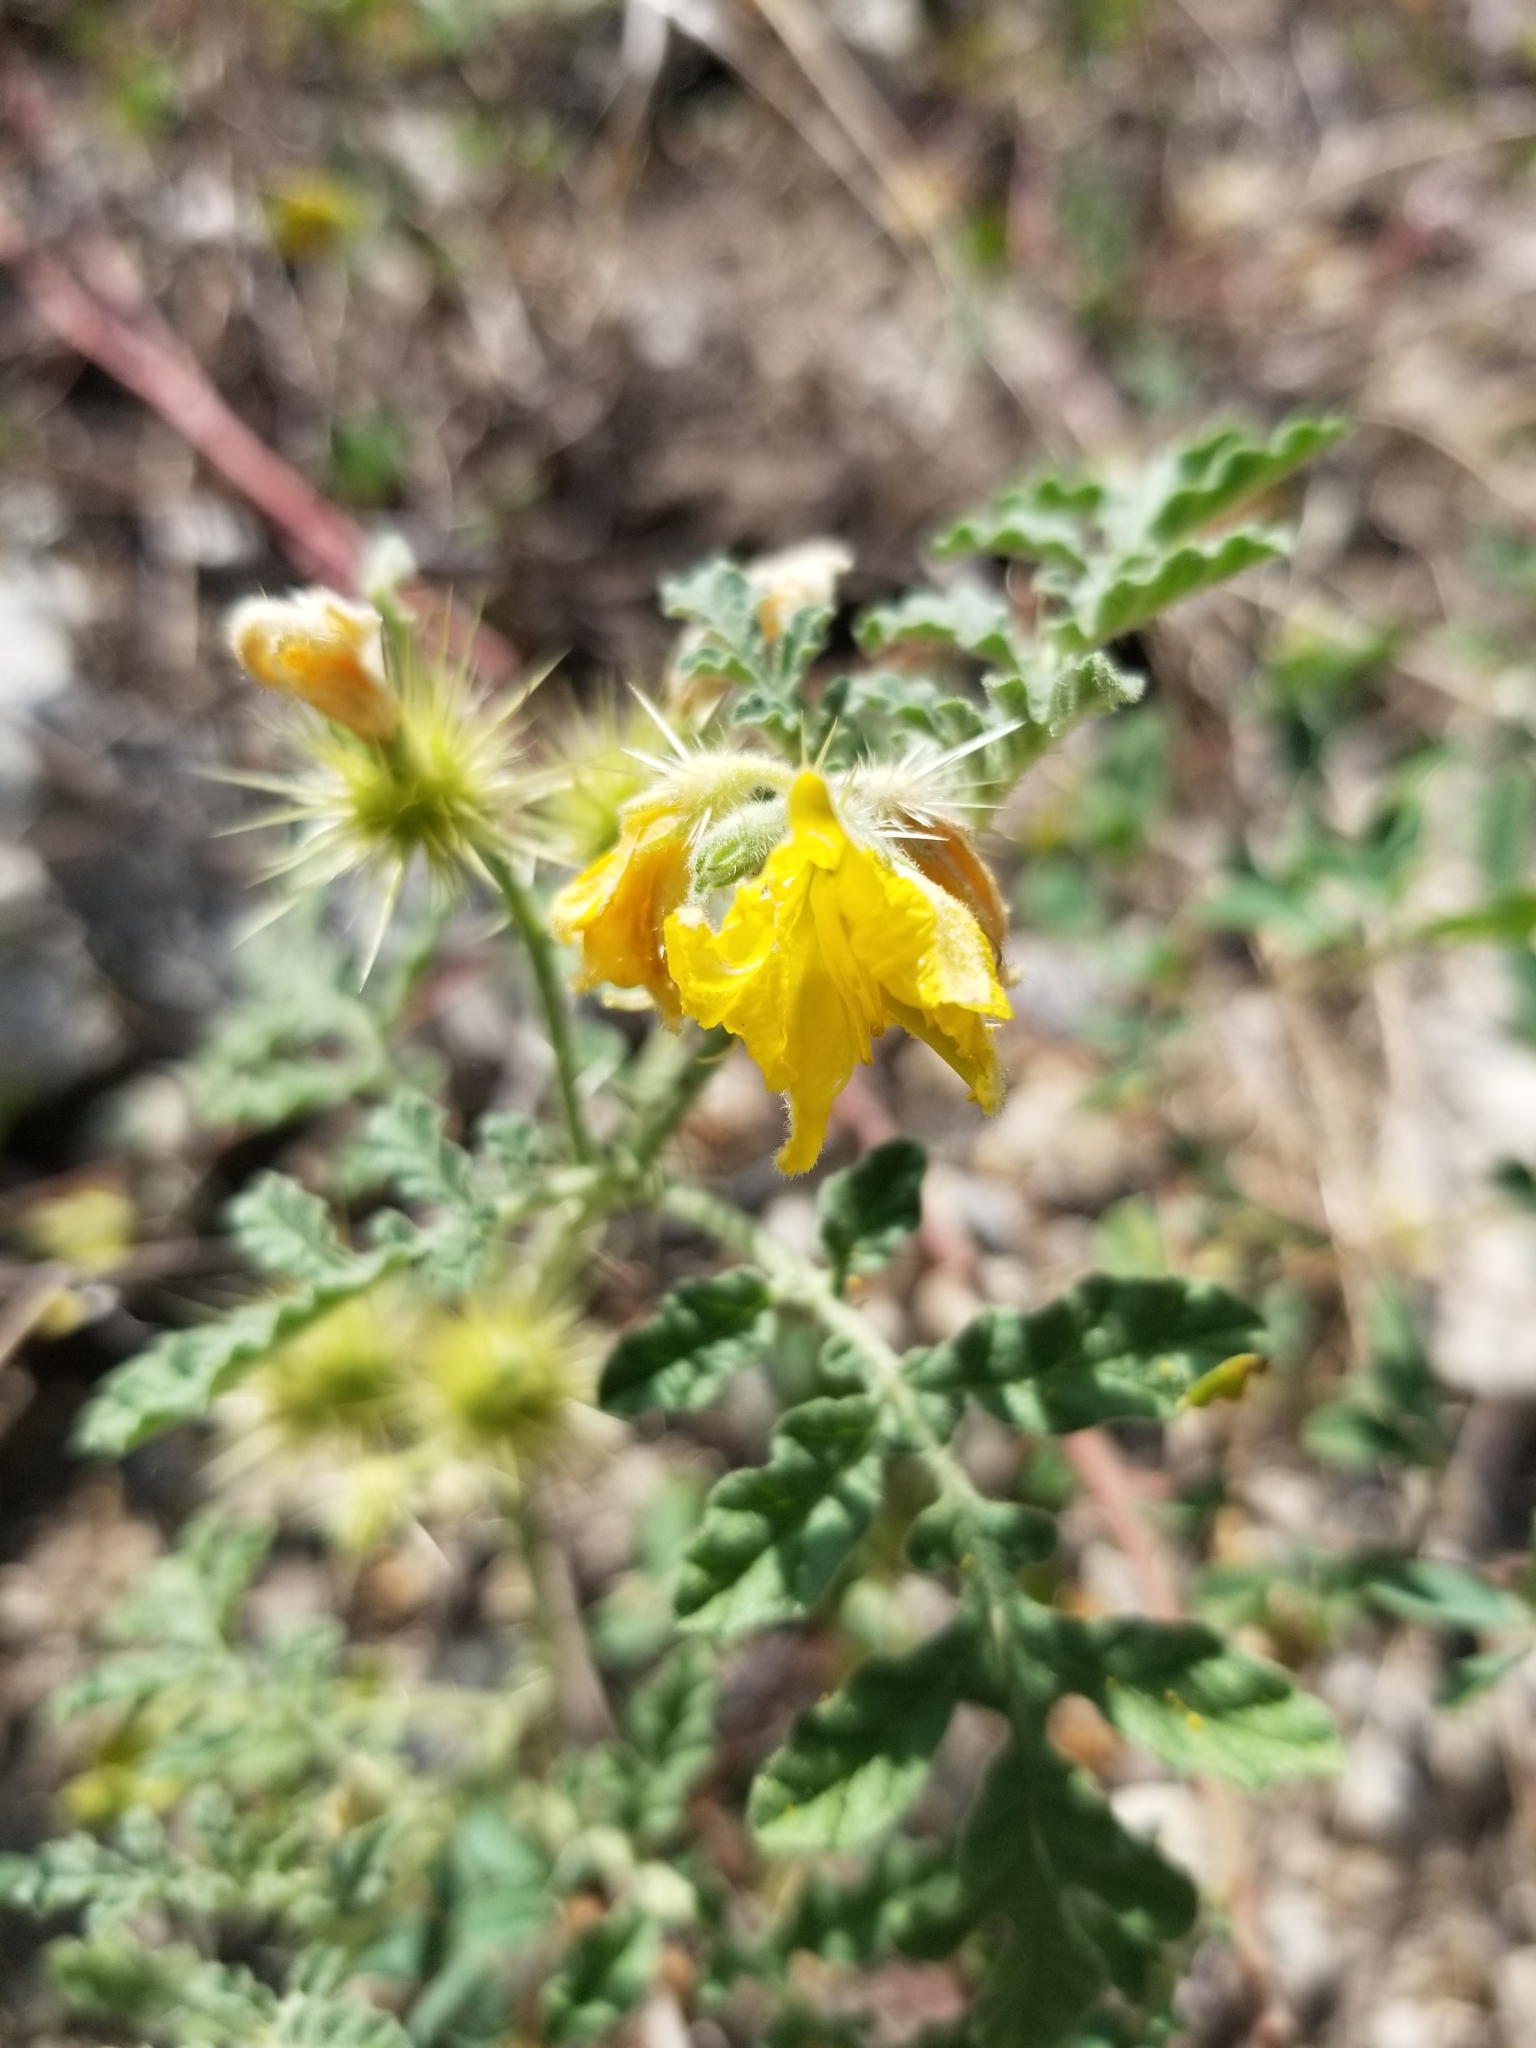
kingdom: Plantae
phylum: Tracheophyta
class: Magnoliopsida
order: Solanales
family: Solanaceae
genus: Solanum
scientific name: Solanum angustifolium
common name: Buffalobur nightshade
